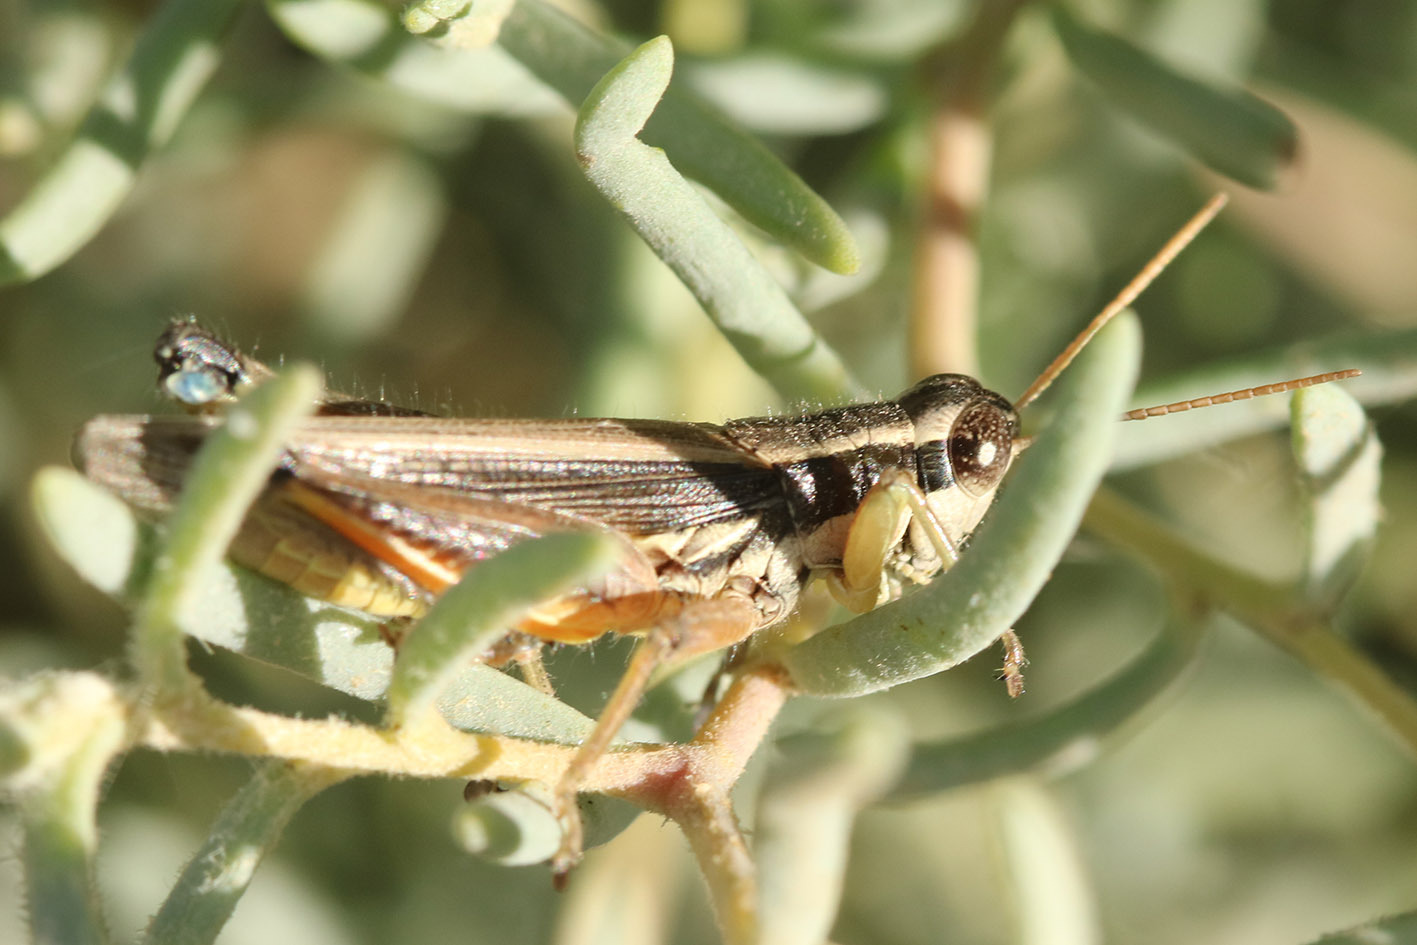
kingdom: Animalia
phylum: Arthropoda
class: Insecta
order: Orthoptera
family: Acrididae
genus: Dichroplus
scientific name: Dichroplus elongatus
